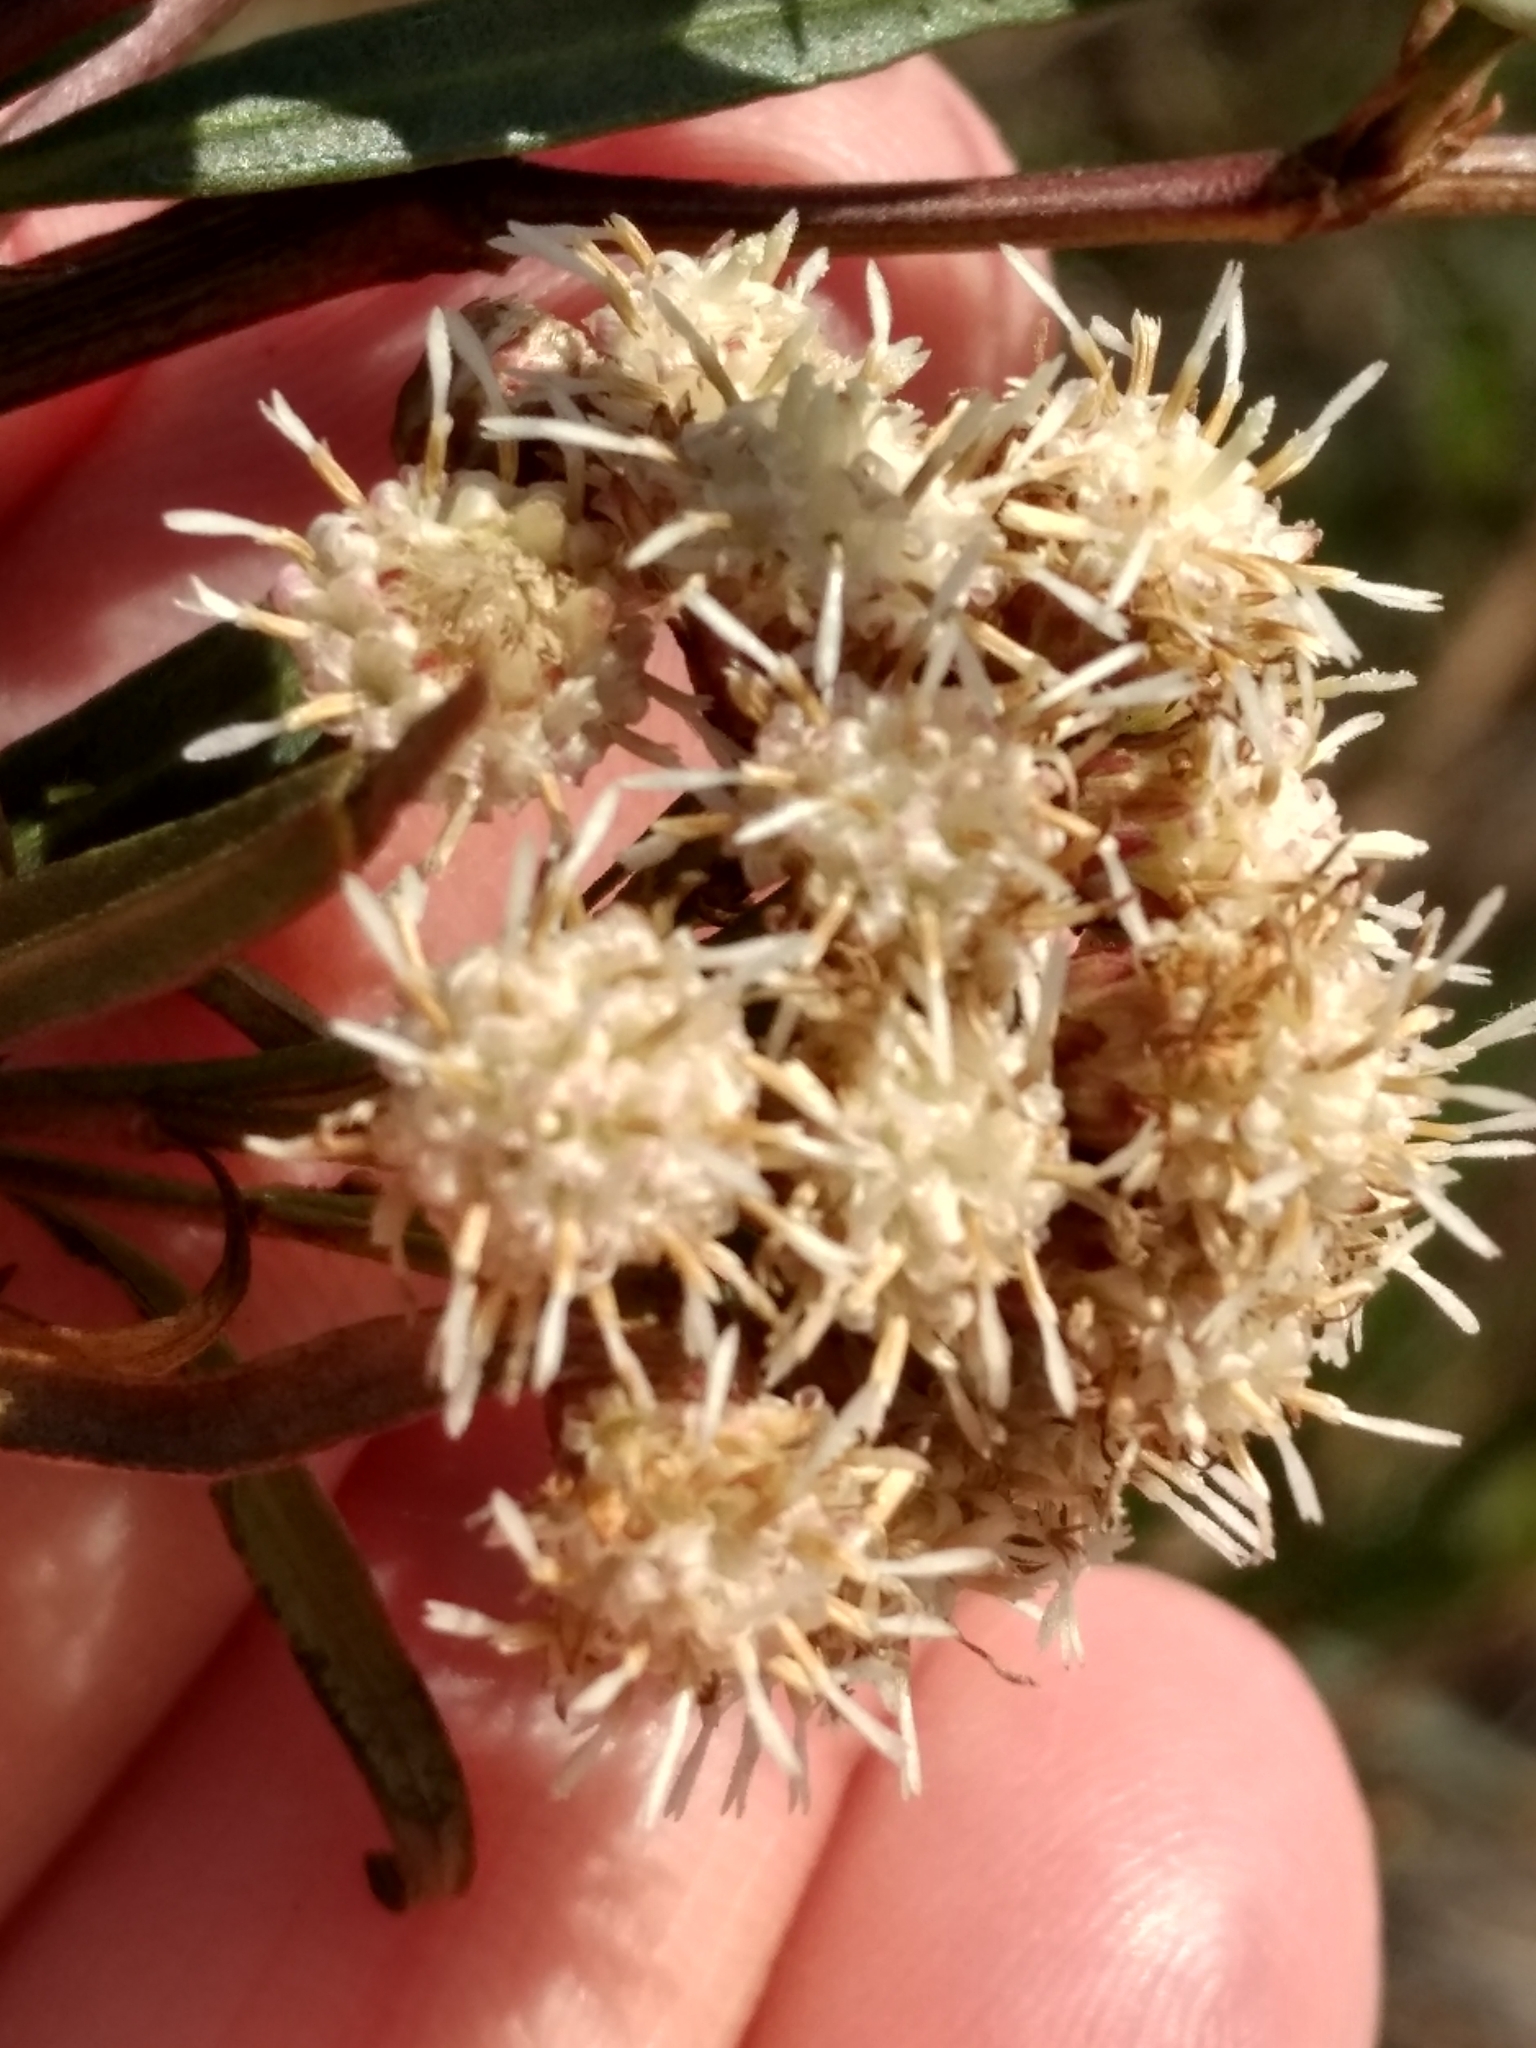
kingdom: Plantae
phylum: Tracheophyta
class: Magnoliopsida
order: Asterales
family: Asteraceae
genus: Baccharis
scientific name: Baccharis salicifolia
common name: Sticky baccharis
